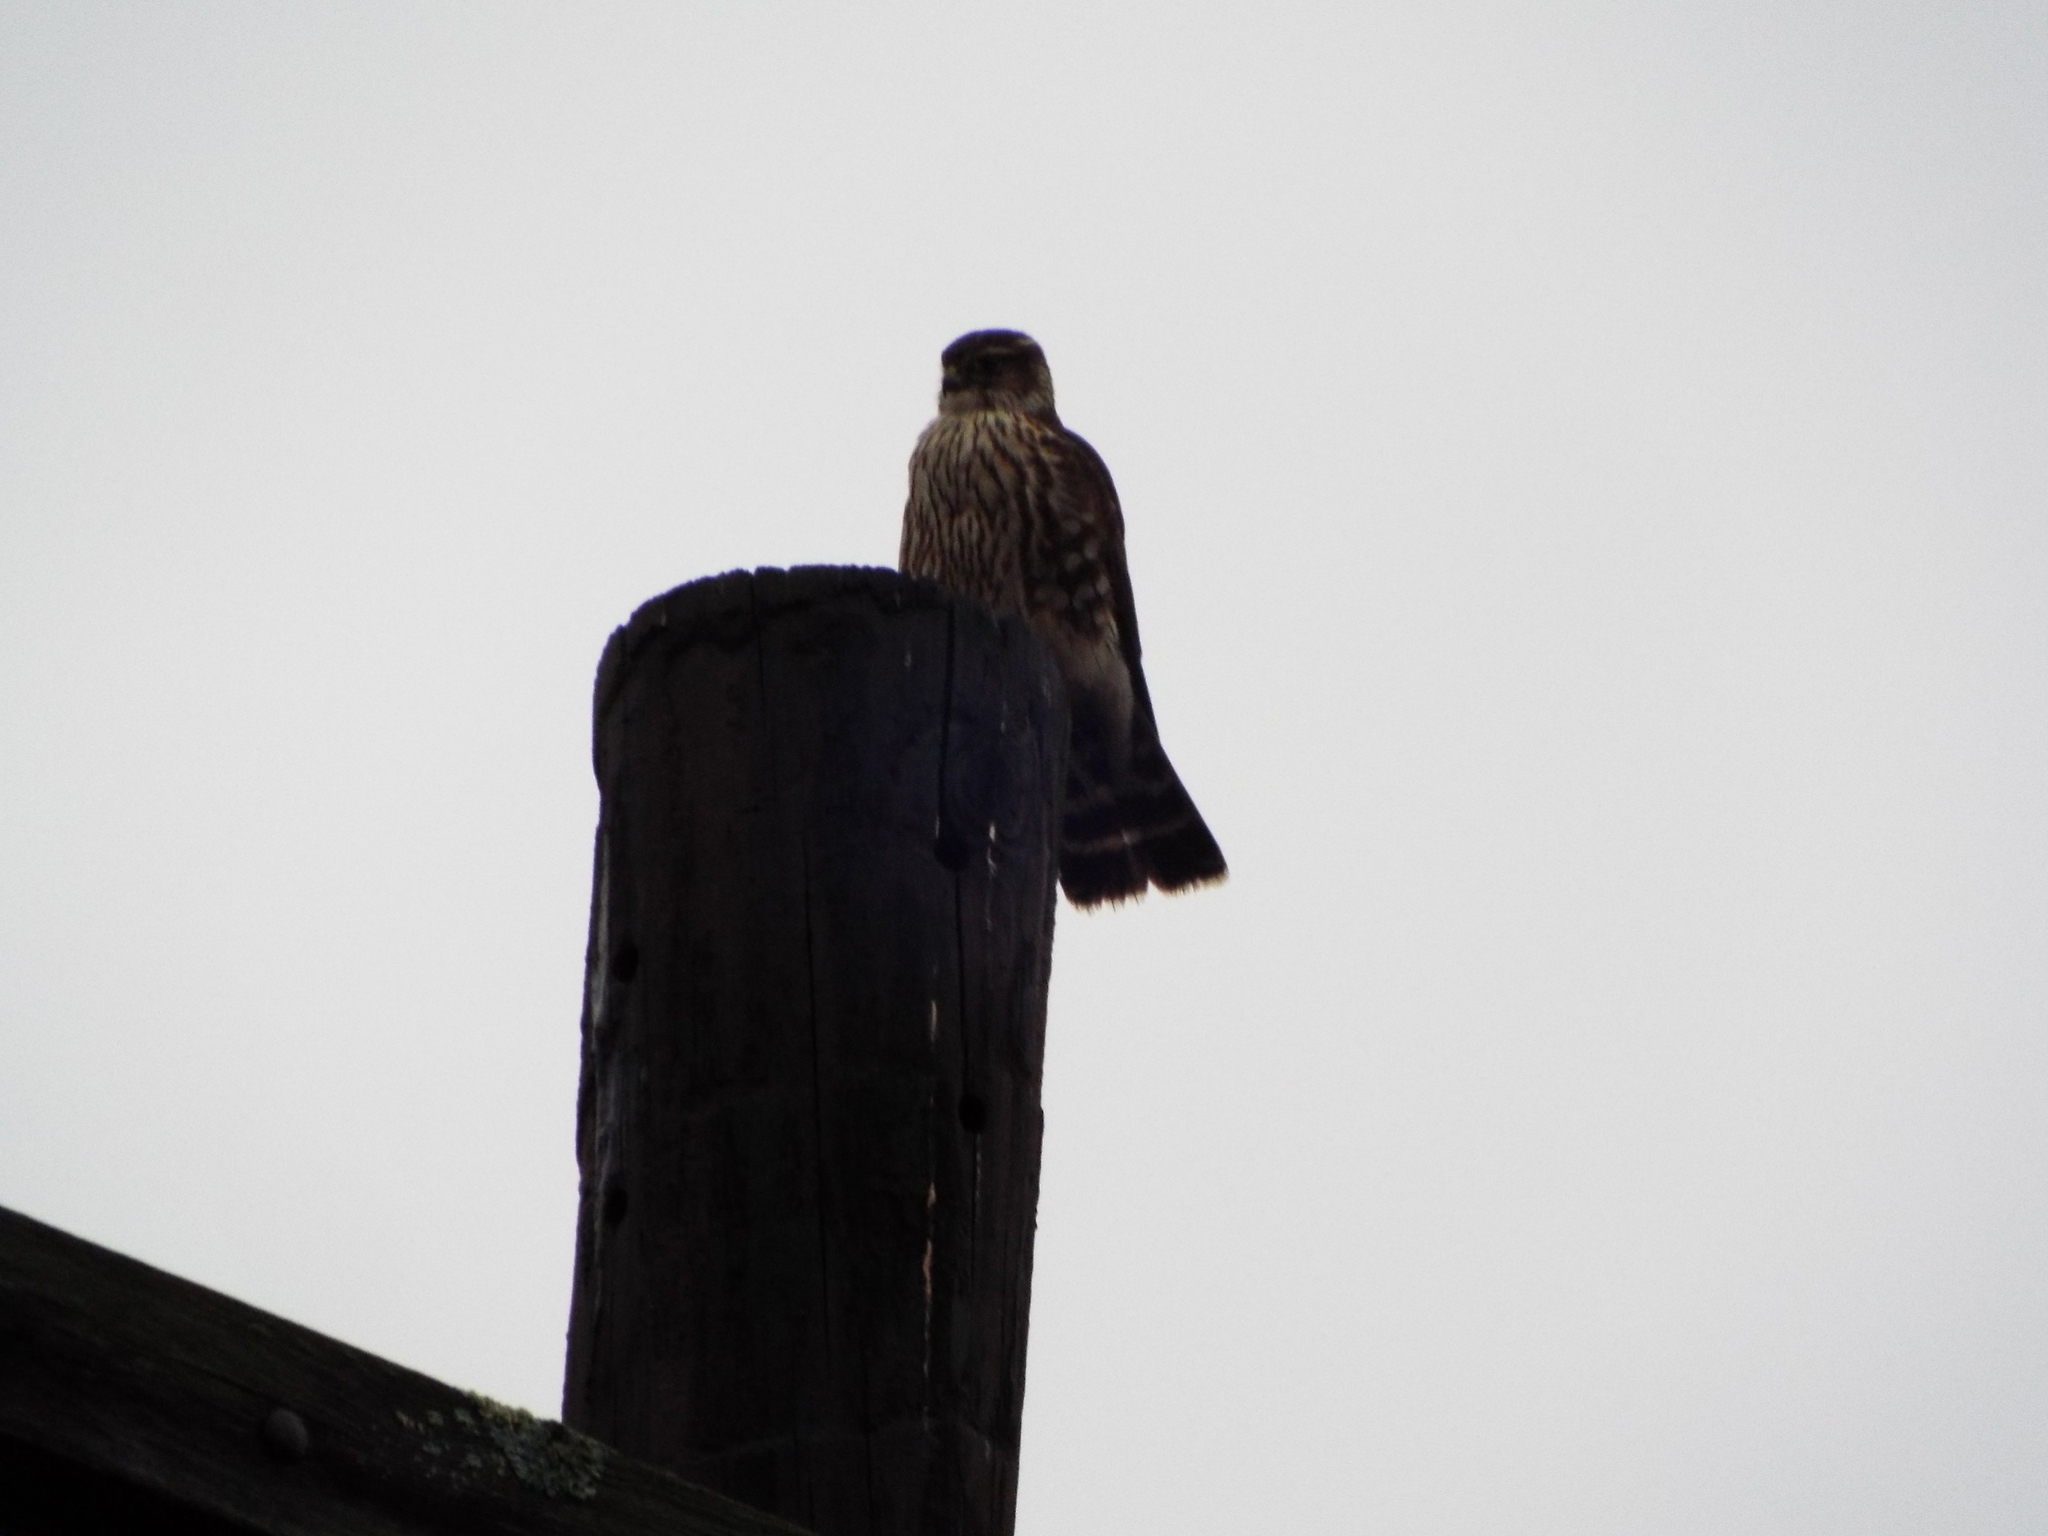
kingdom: Animalia
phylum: Chordata
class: Aves
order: Falconiformes
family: Falconidae
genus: Falco
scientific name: Falco columbarius
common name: Merlin
